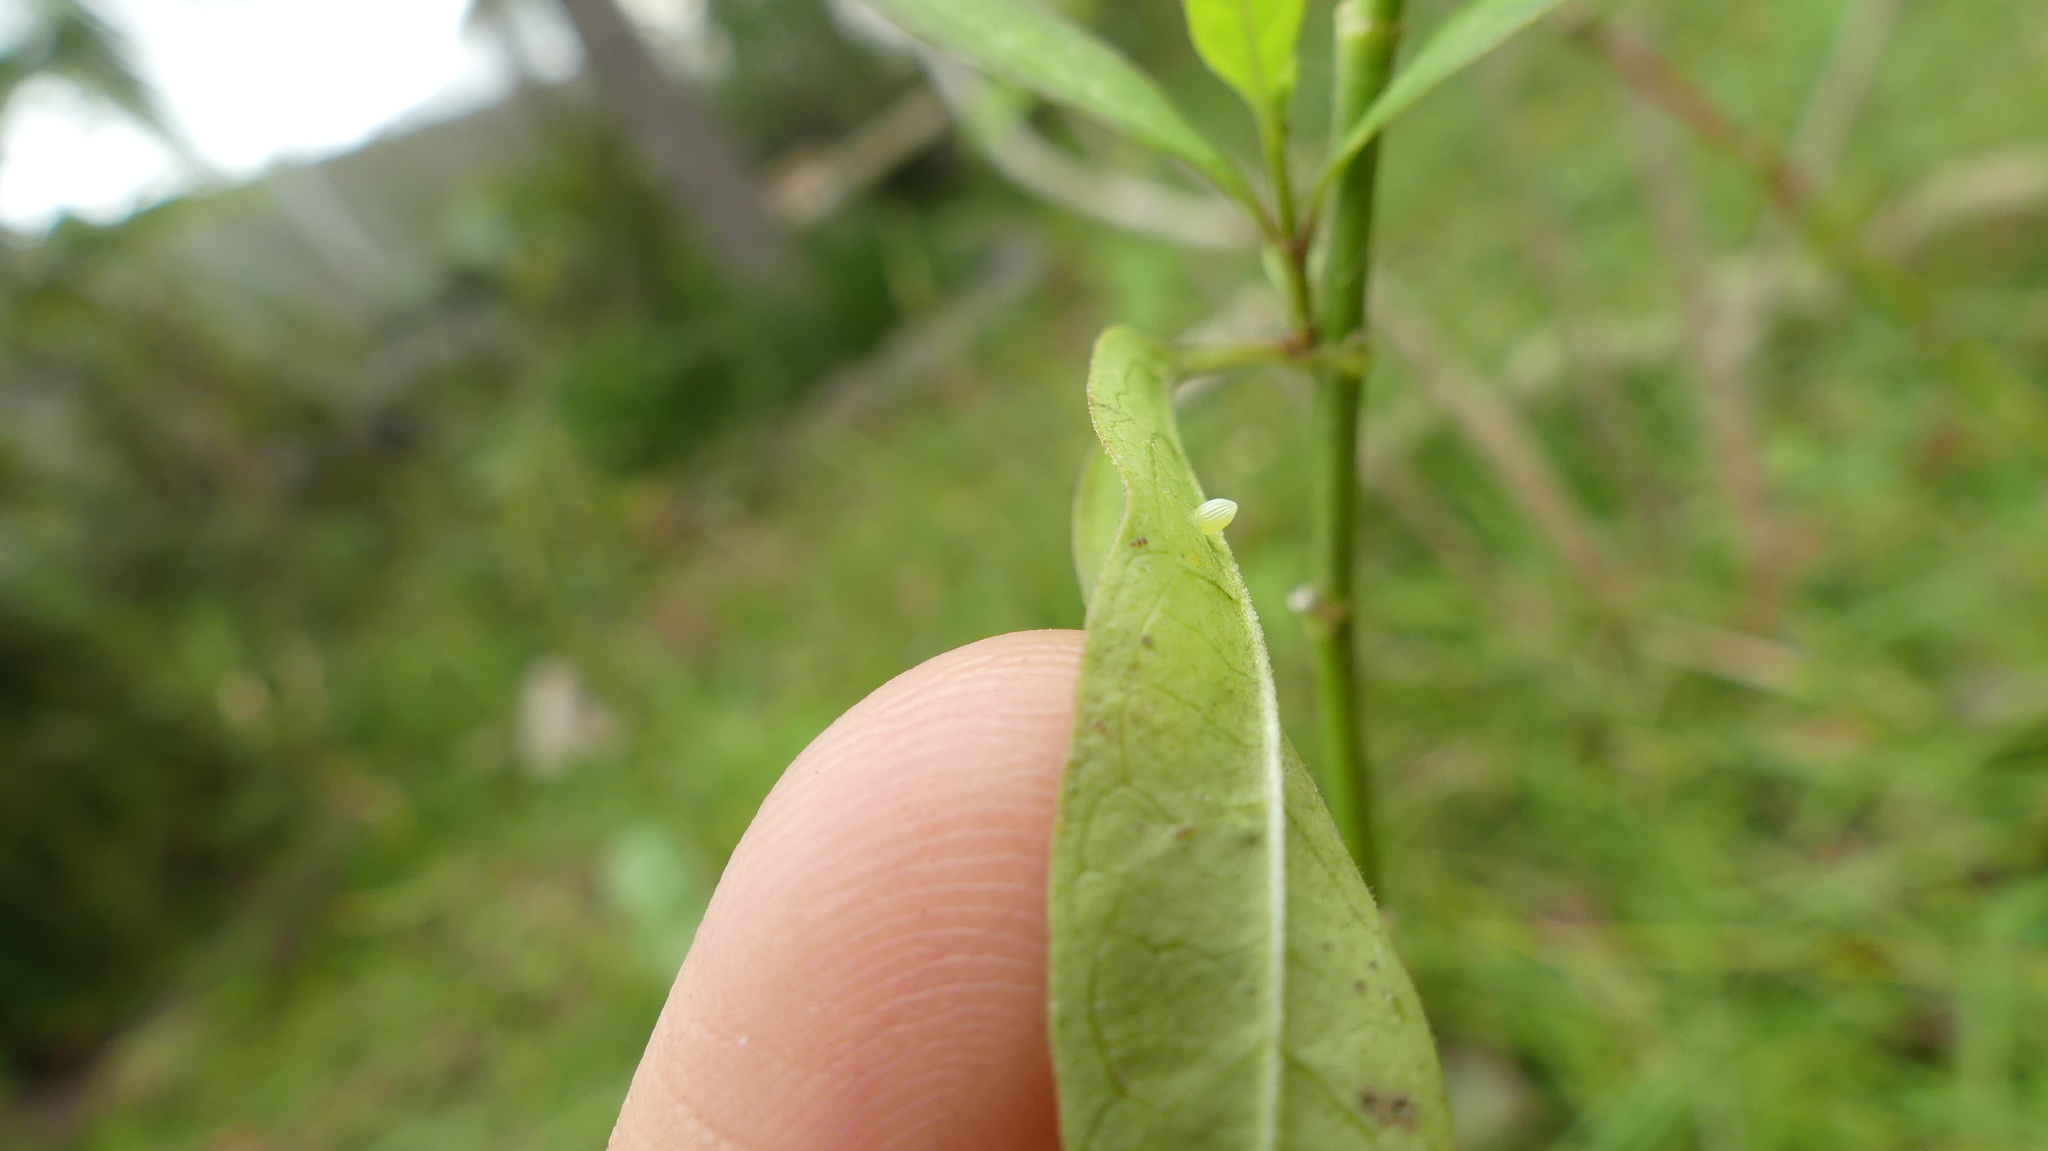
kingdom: Animalia
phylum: Arthropoda
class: Insecta
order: Lepidoptera
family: Nymphalidae
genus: Danaus
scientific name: Danaus plexippus
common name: Monarch
